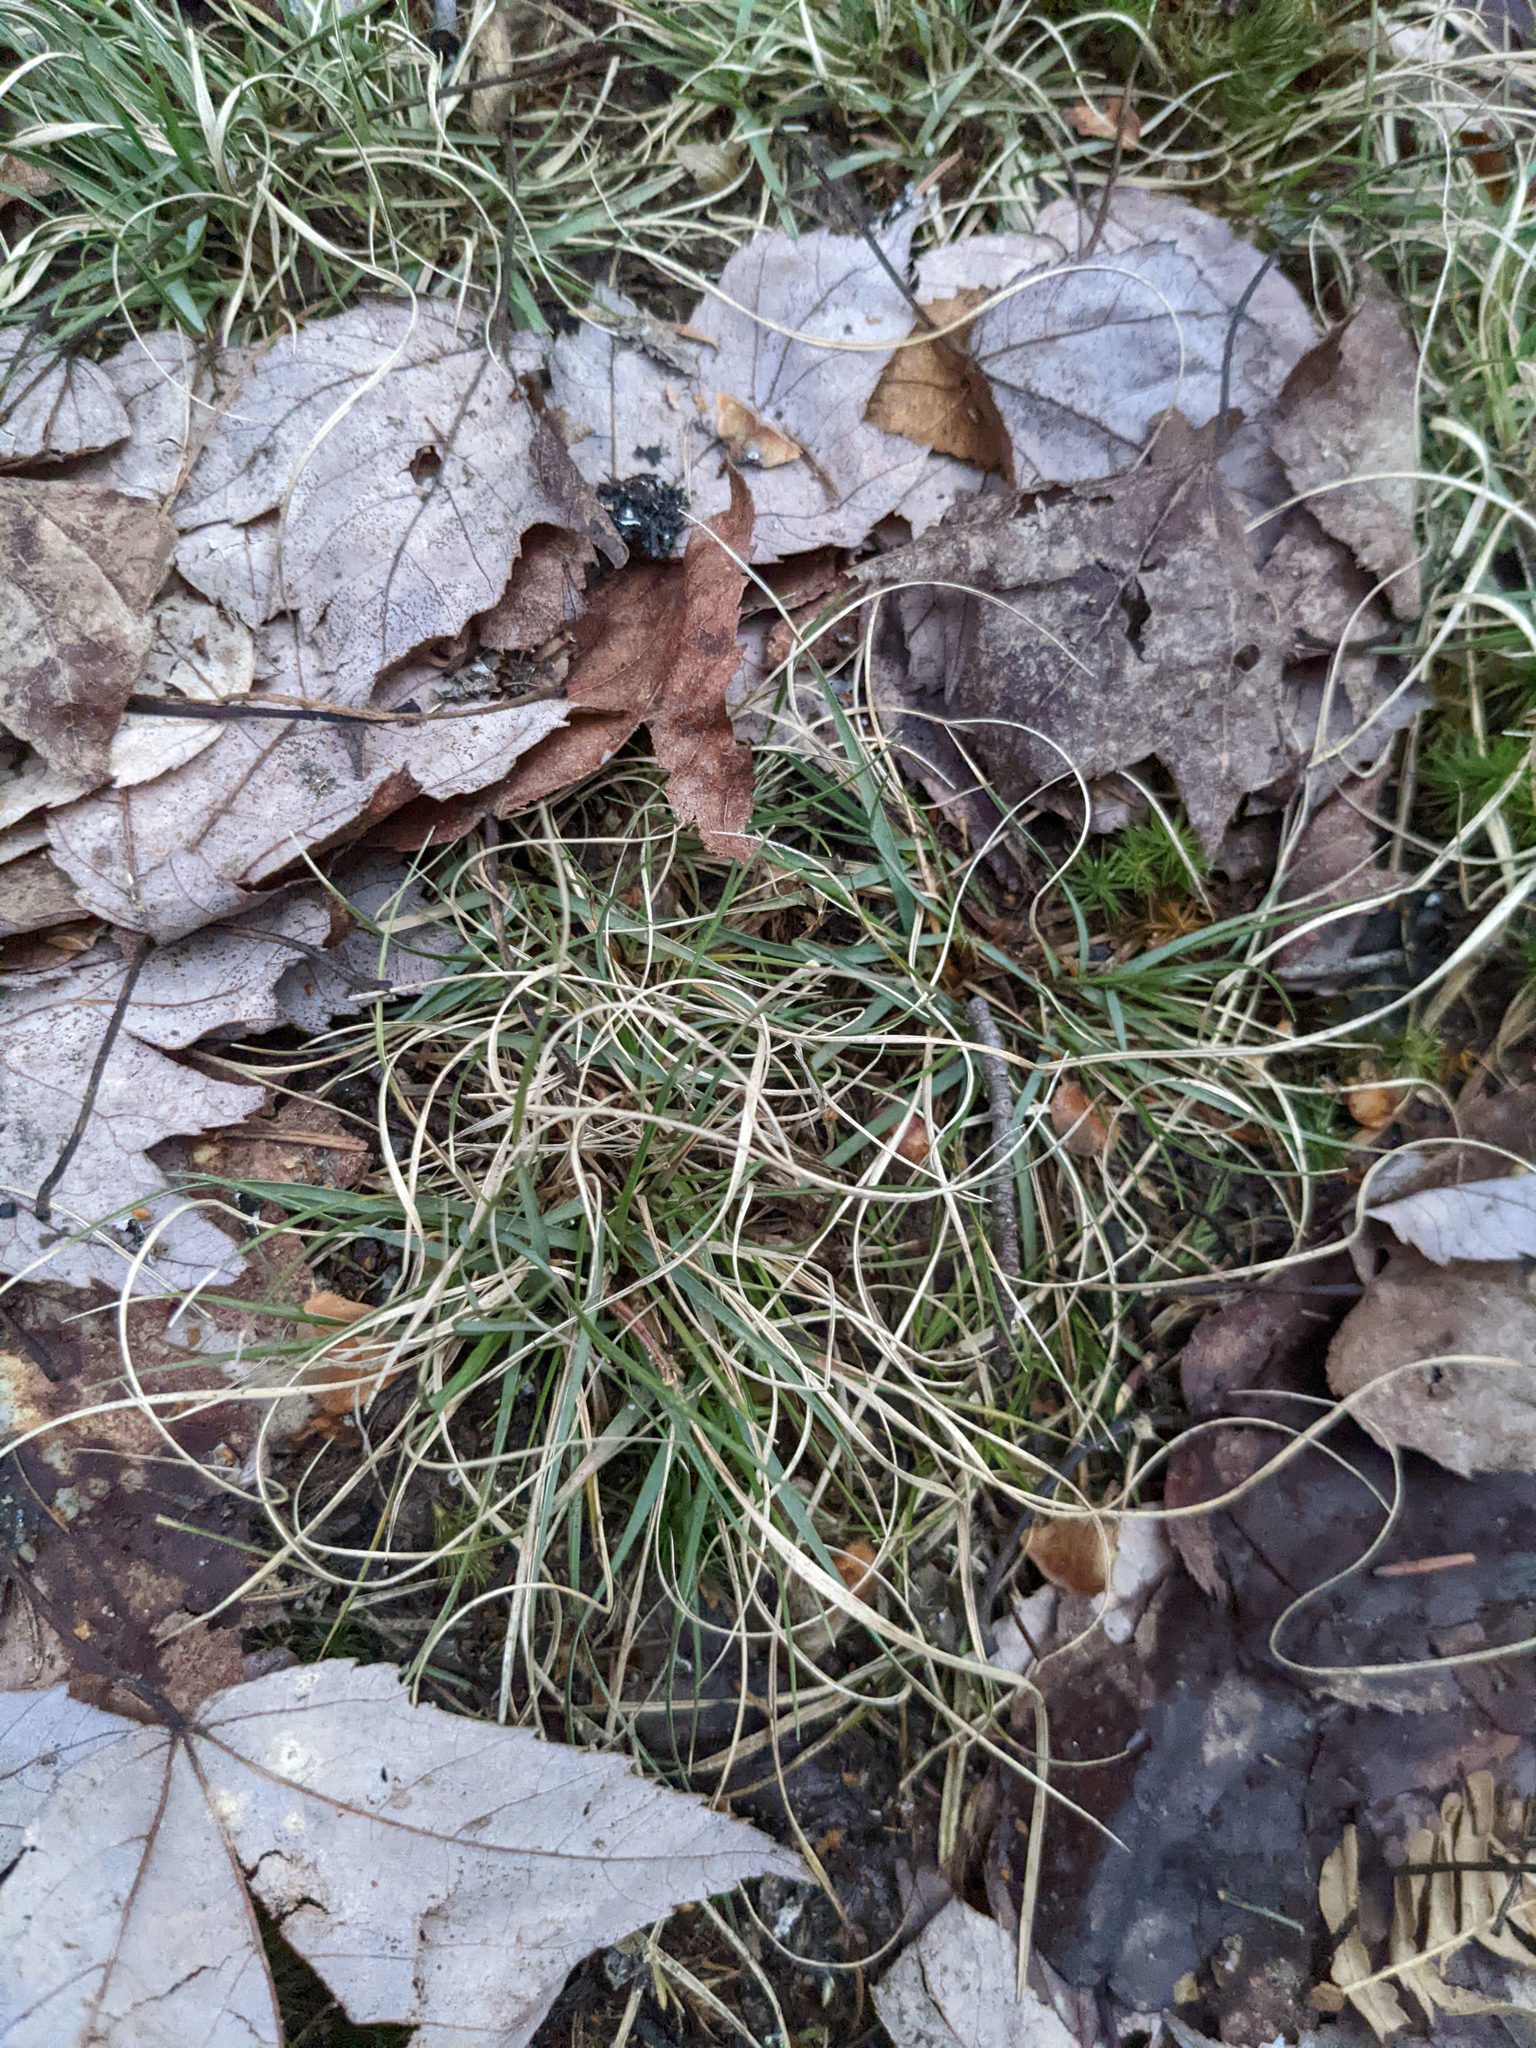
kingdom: Plantae
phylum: Tracheophyta
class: Liliopsida
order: Poales
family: Poaceae
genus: Danthonia
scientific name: Danthonia spicata
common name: Common wild oatgrass
